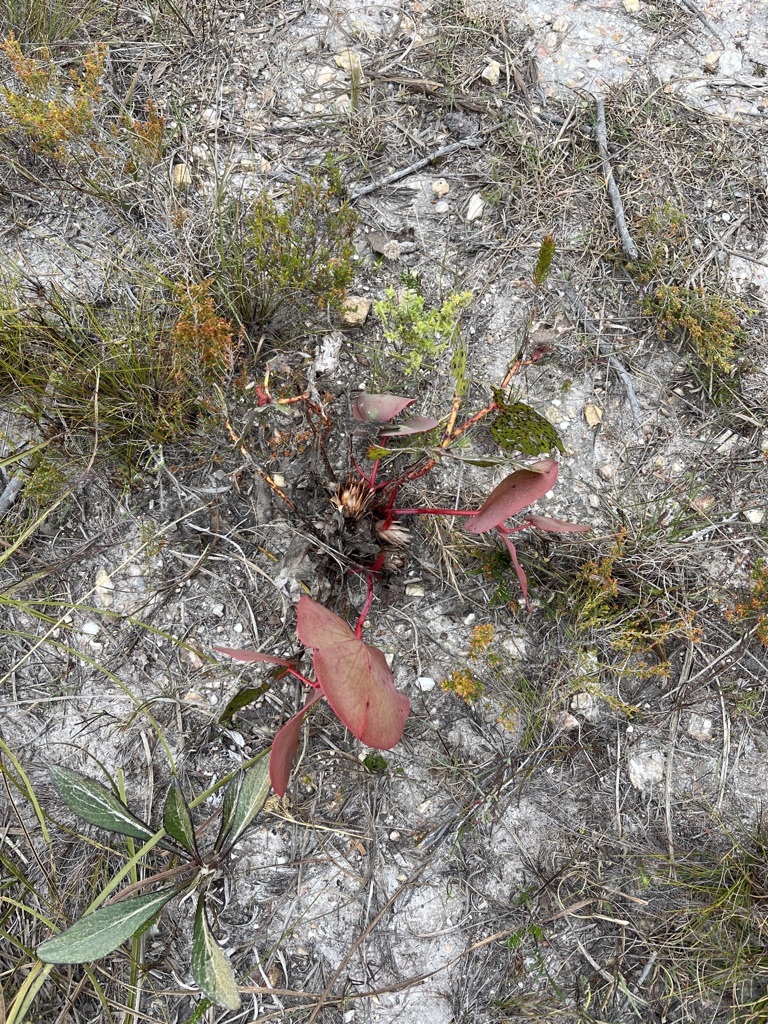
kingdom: Plantae
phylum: Tracheophyta
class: Magnoliopsida
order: Proteales
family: Proteaceae
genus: Protea
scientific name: Protea cordata
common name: Heart-leaf sugarbush
